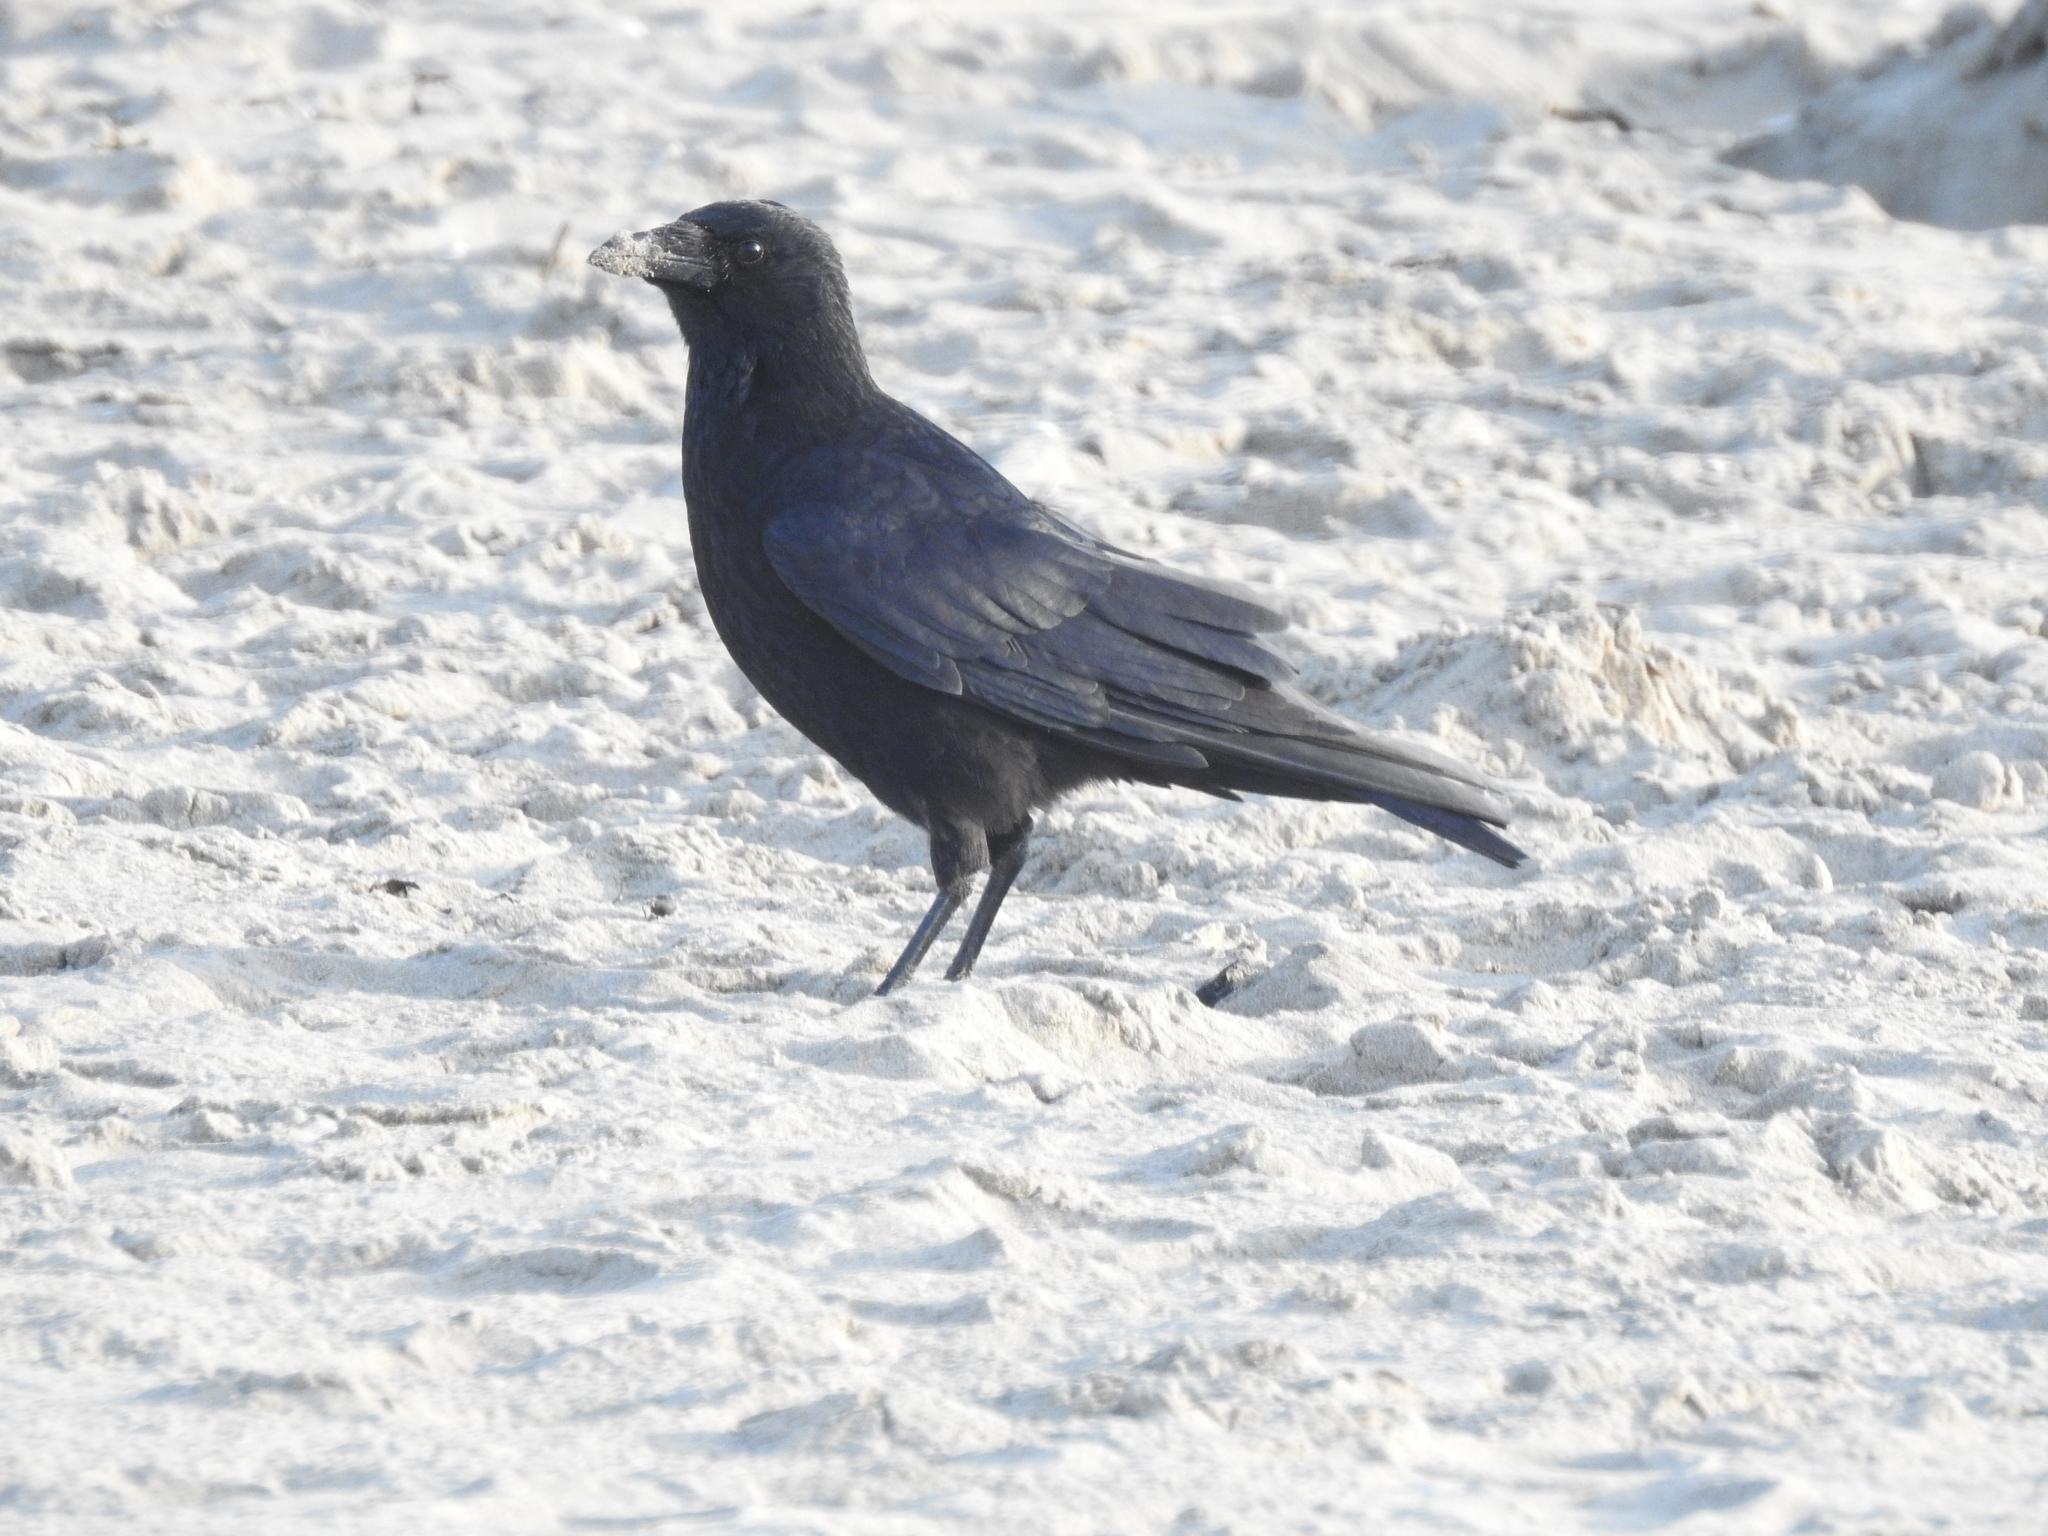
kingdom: Animalia
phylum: Chordata
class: Aves
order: Passeriformes
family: Corvidae
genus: Corvus
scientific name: Corvus corone
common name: Carrion crow
